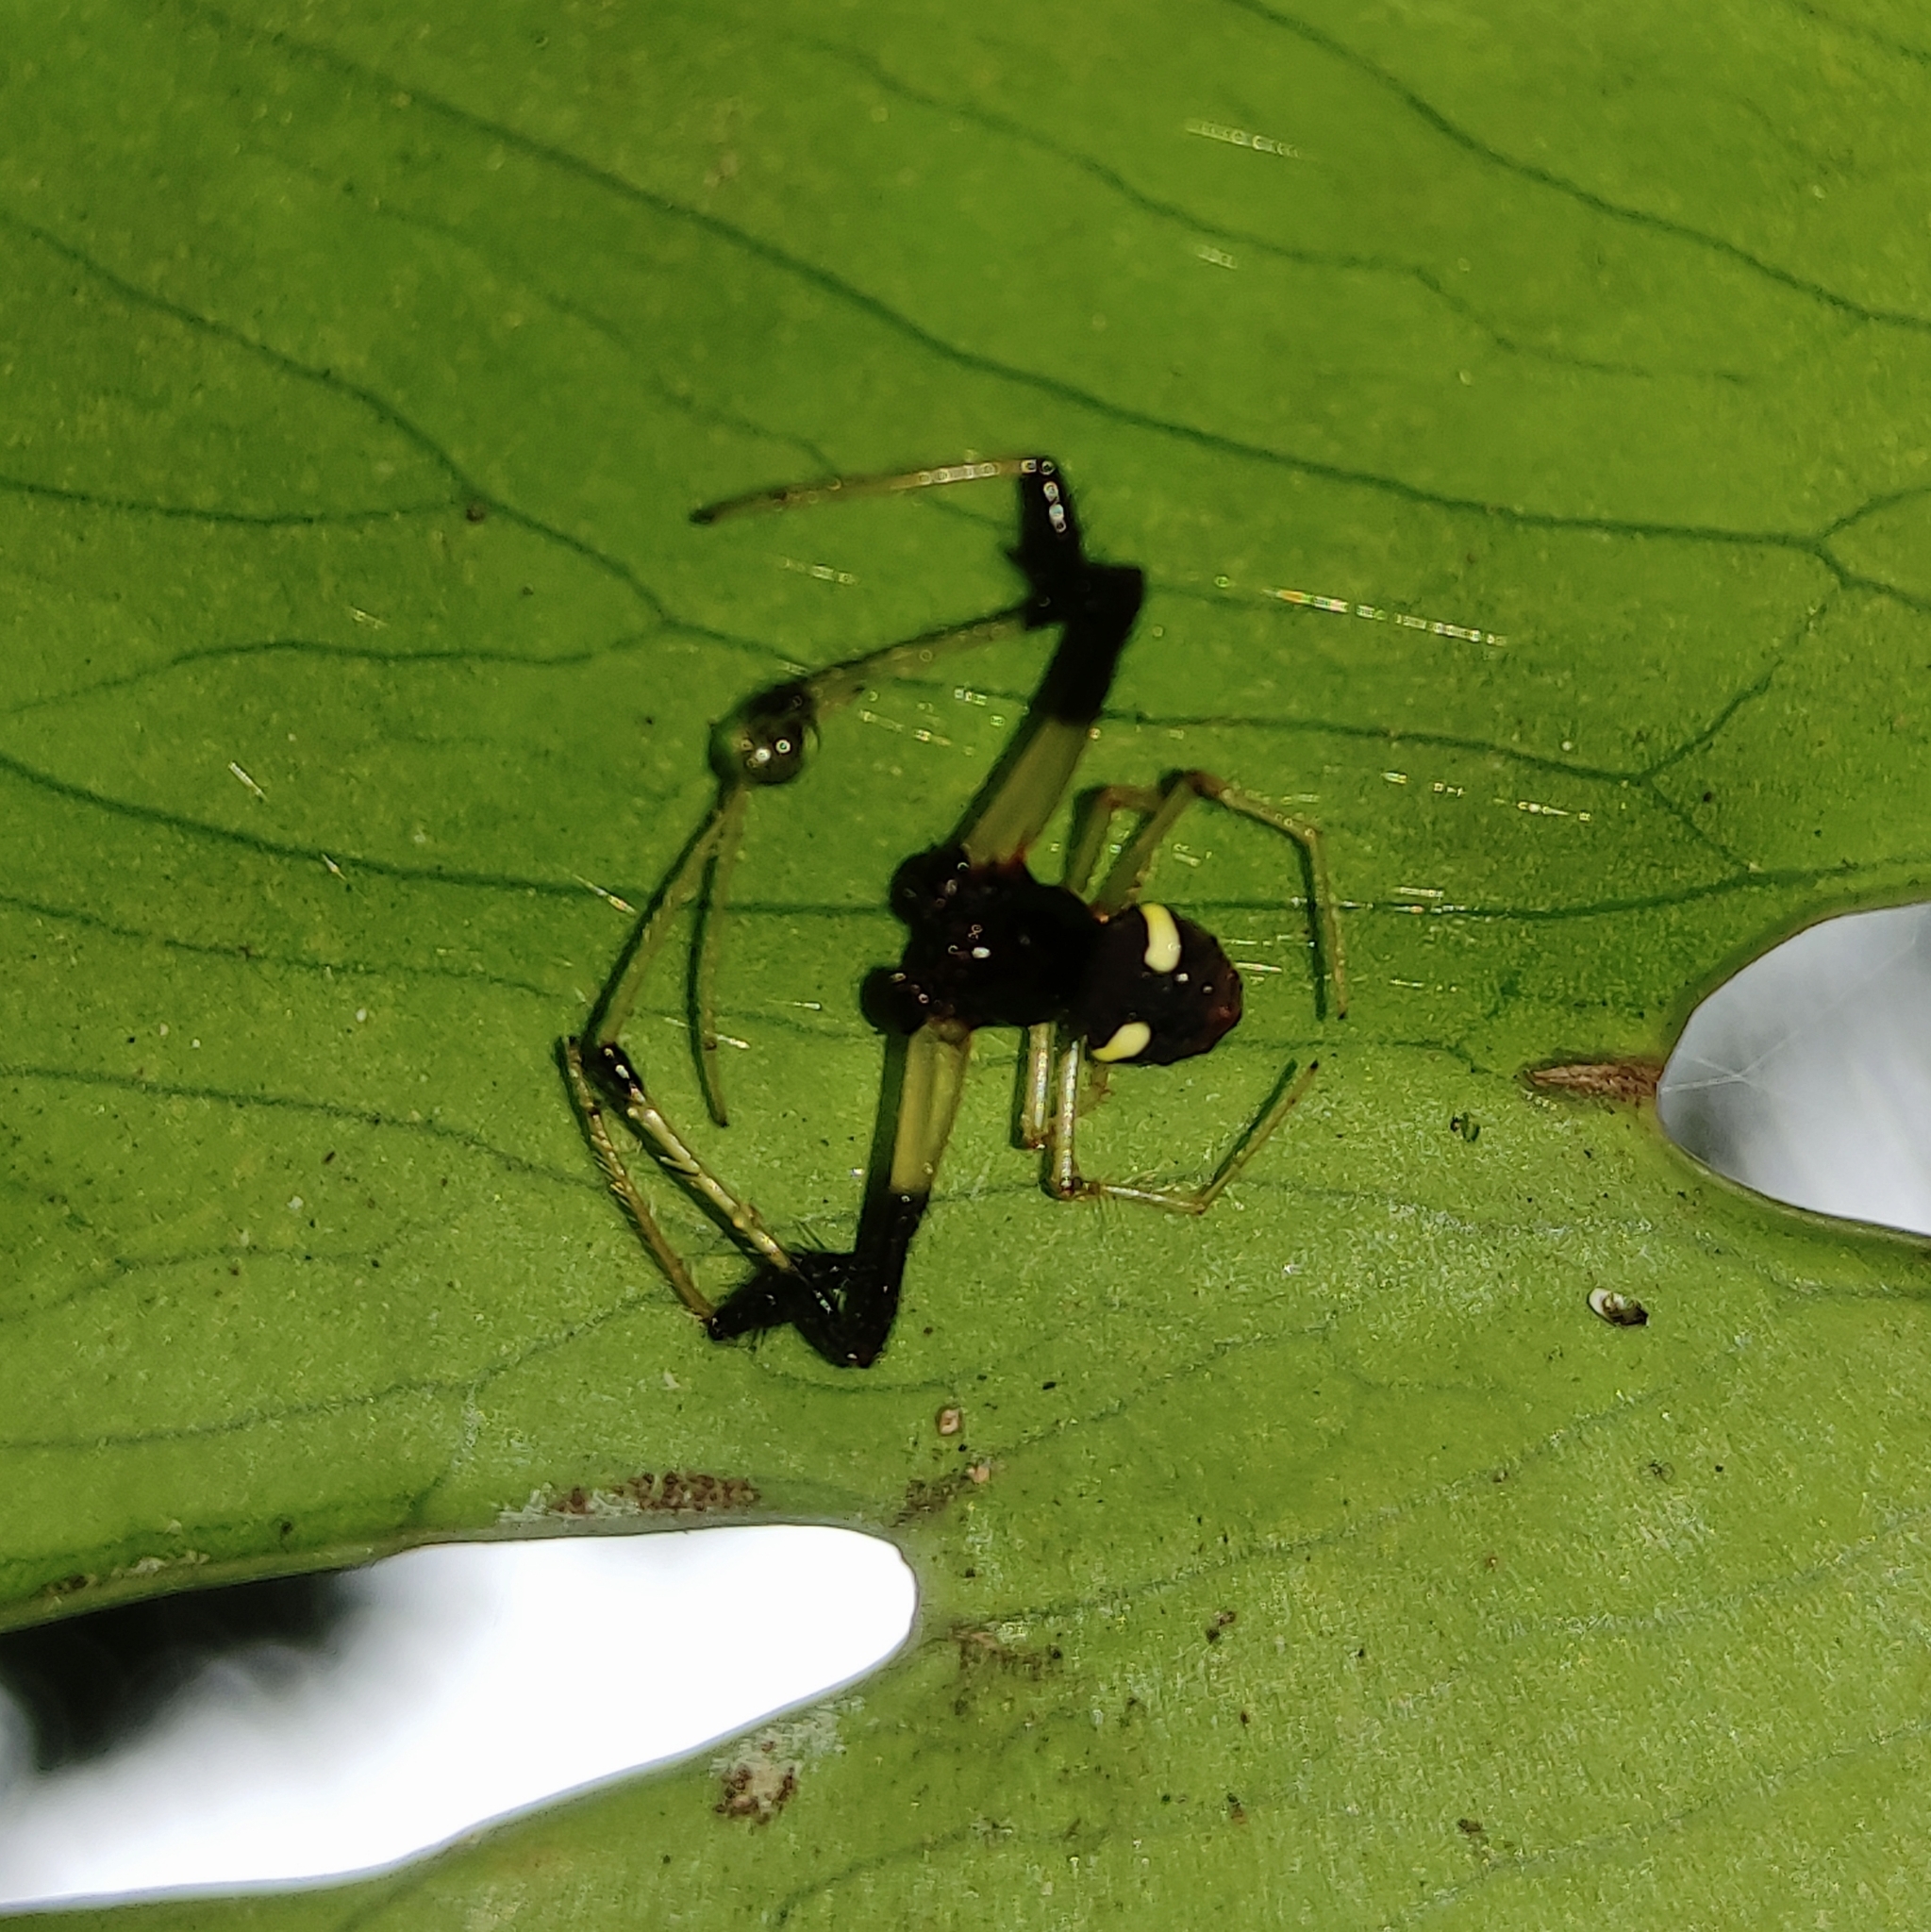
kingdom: Animalia
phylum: Arthropoda
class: Arachnida
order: Araneae
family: Araneidae
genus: Verrucosa
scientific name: Verrucosa zebra
